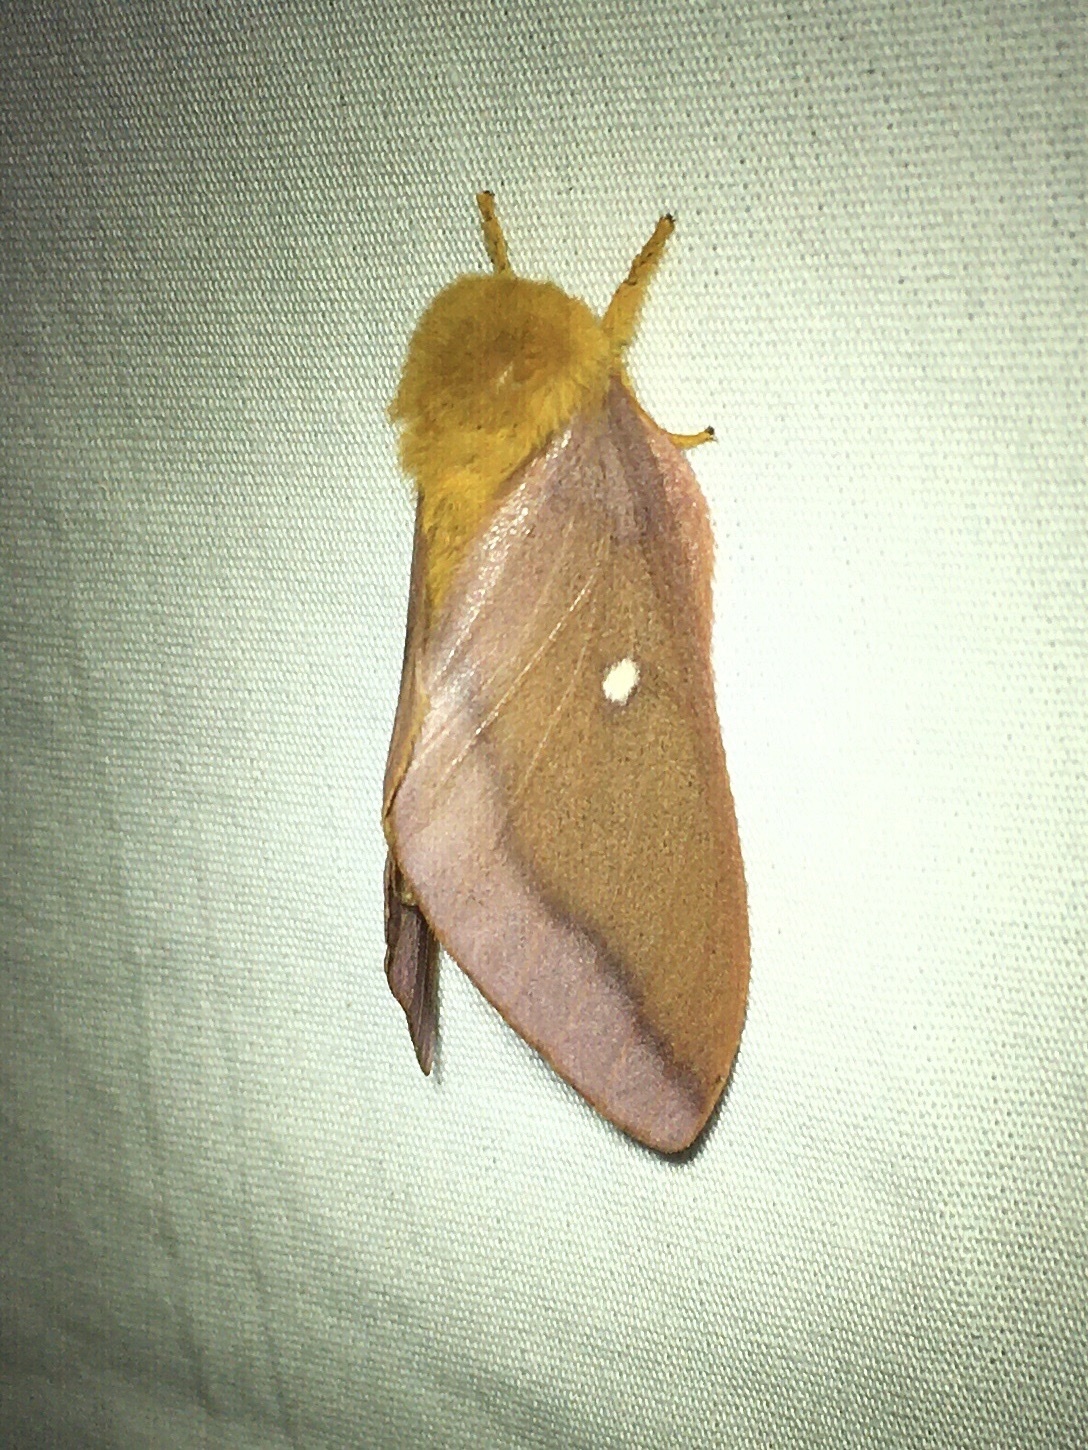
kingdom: Animalia
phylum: Arthropoda
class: Insecta
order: Lepidoptera
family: Saturniidae
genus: Anisota
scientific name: Anisota virginiensis
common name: Pink striped oakworm moth
